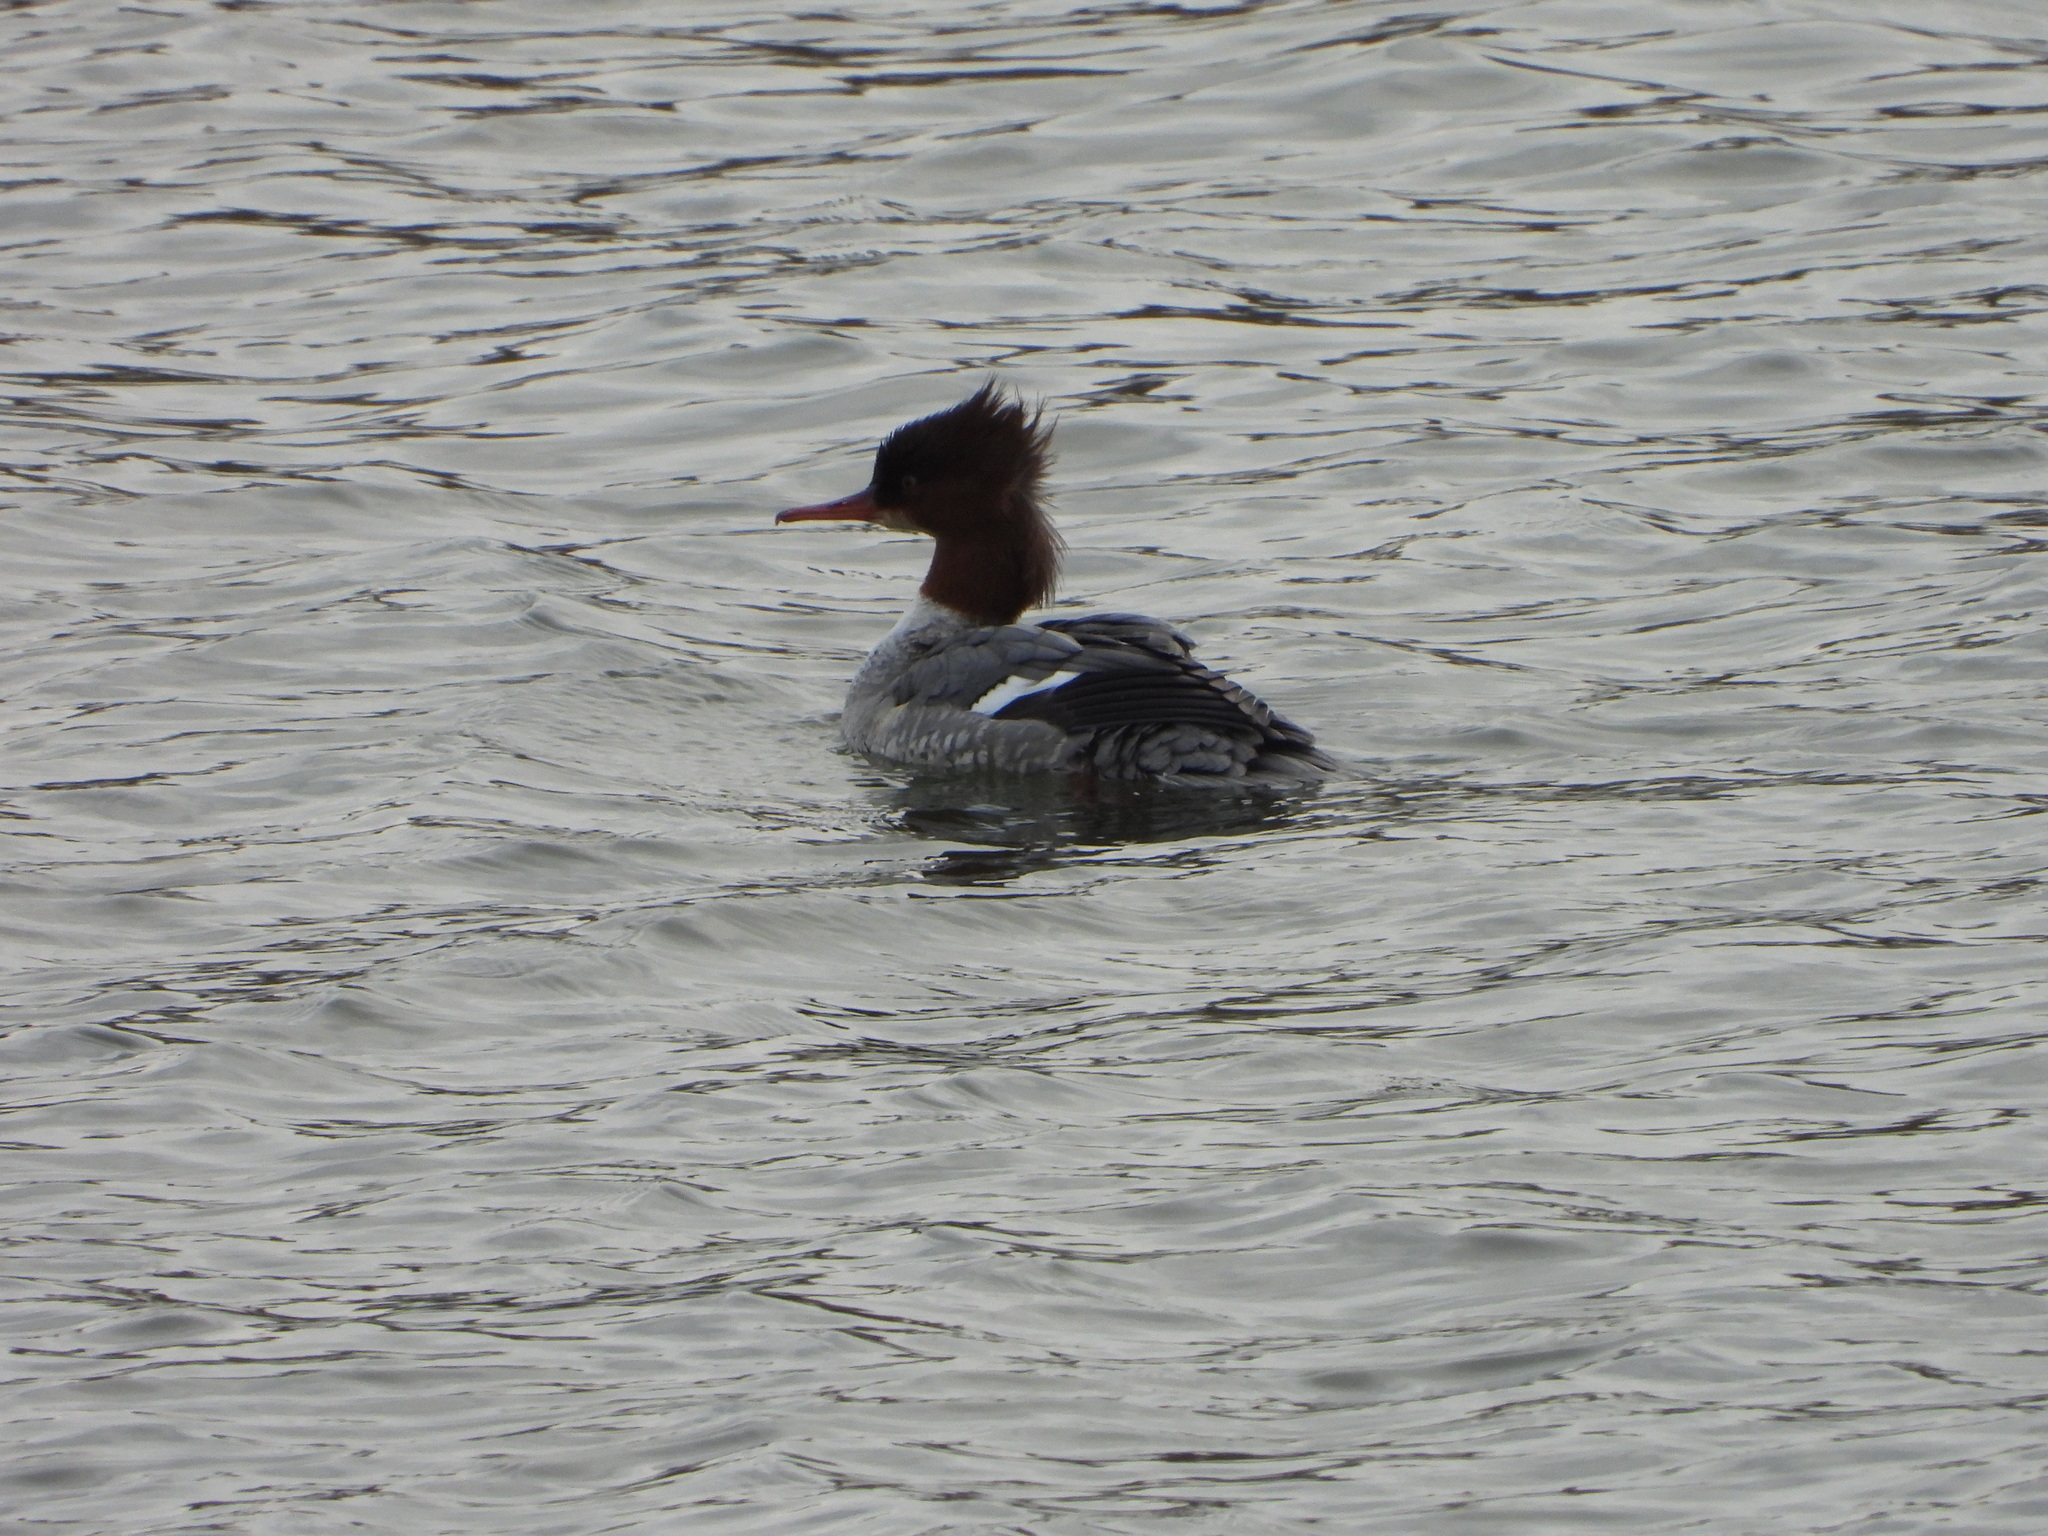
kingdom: Animalia
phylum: Chordata
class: Aves
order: Anseriformes
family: Anatidae
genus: Mergus
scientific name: Mergus merganser
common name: Common merganser
